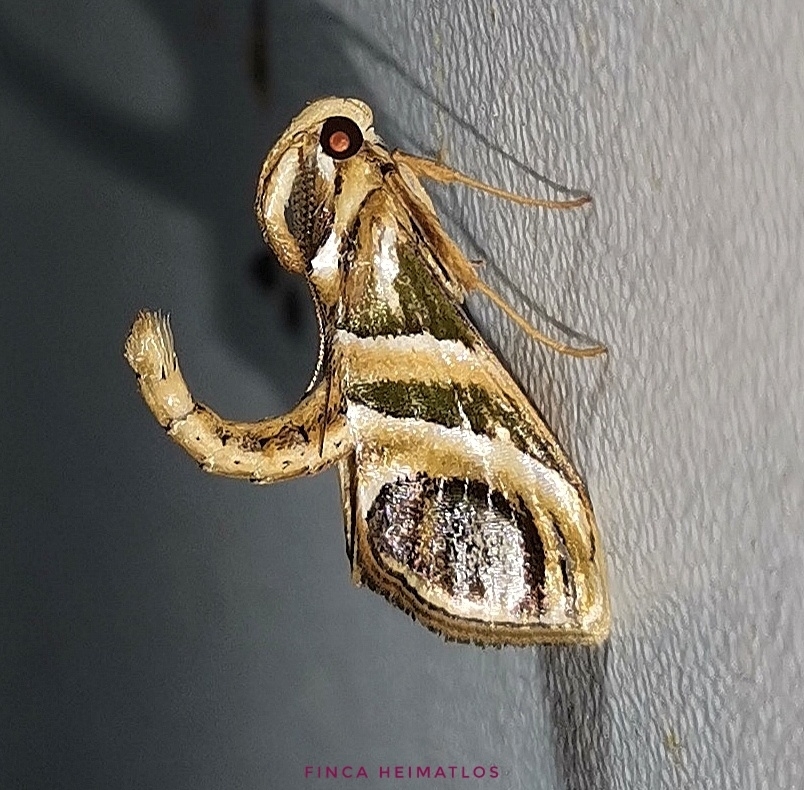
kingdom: Animalia
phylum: Arthropoda
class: Insecta
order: Lepidoptera
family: Pyralidae
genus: Incarcha
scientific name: Incarcha argentilinea
